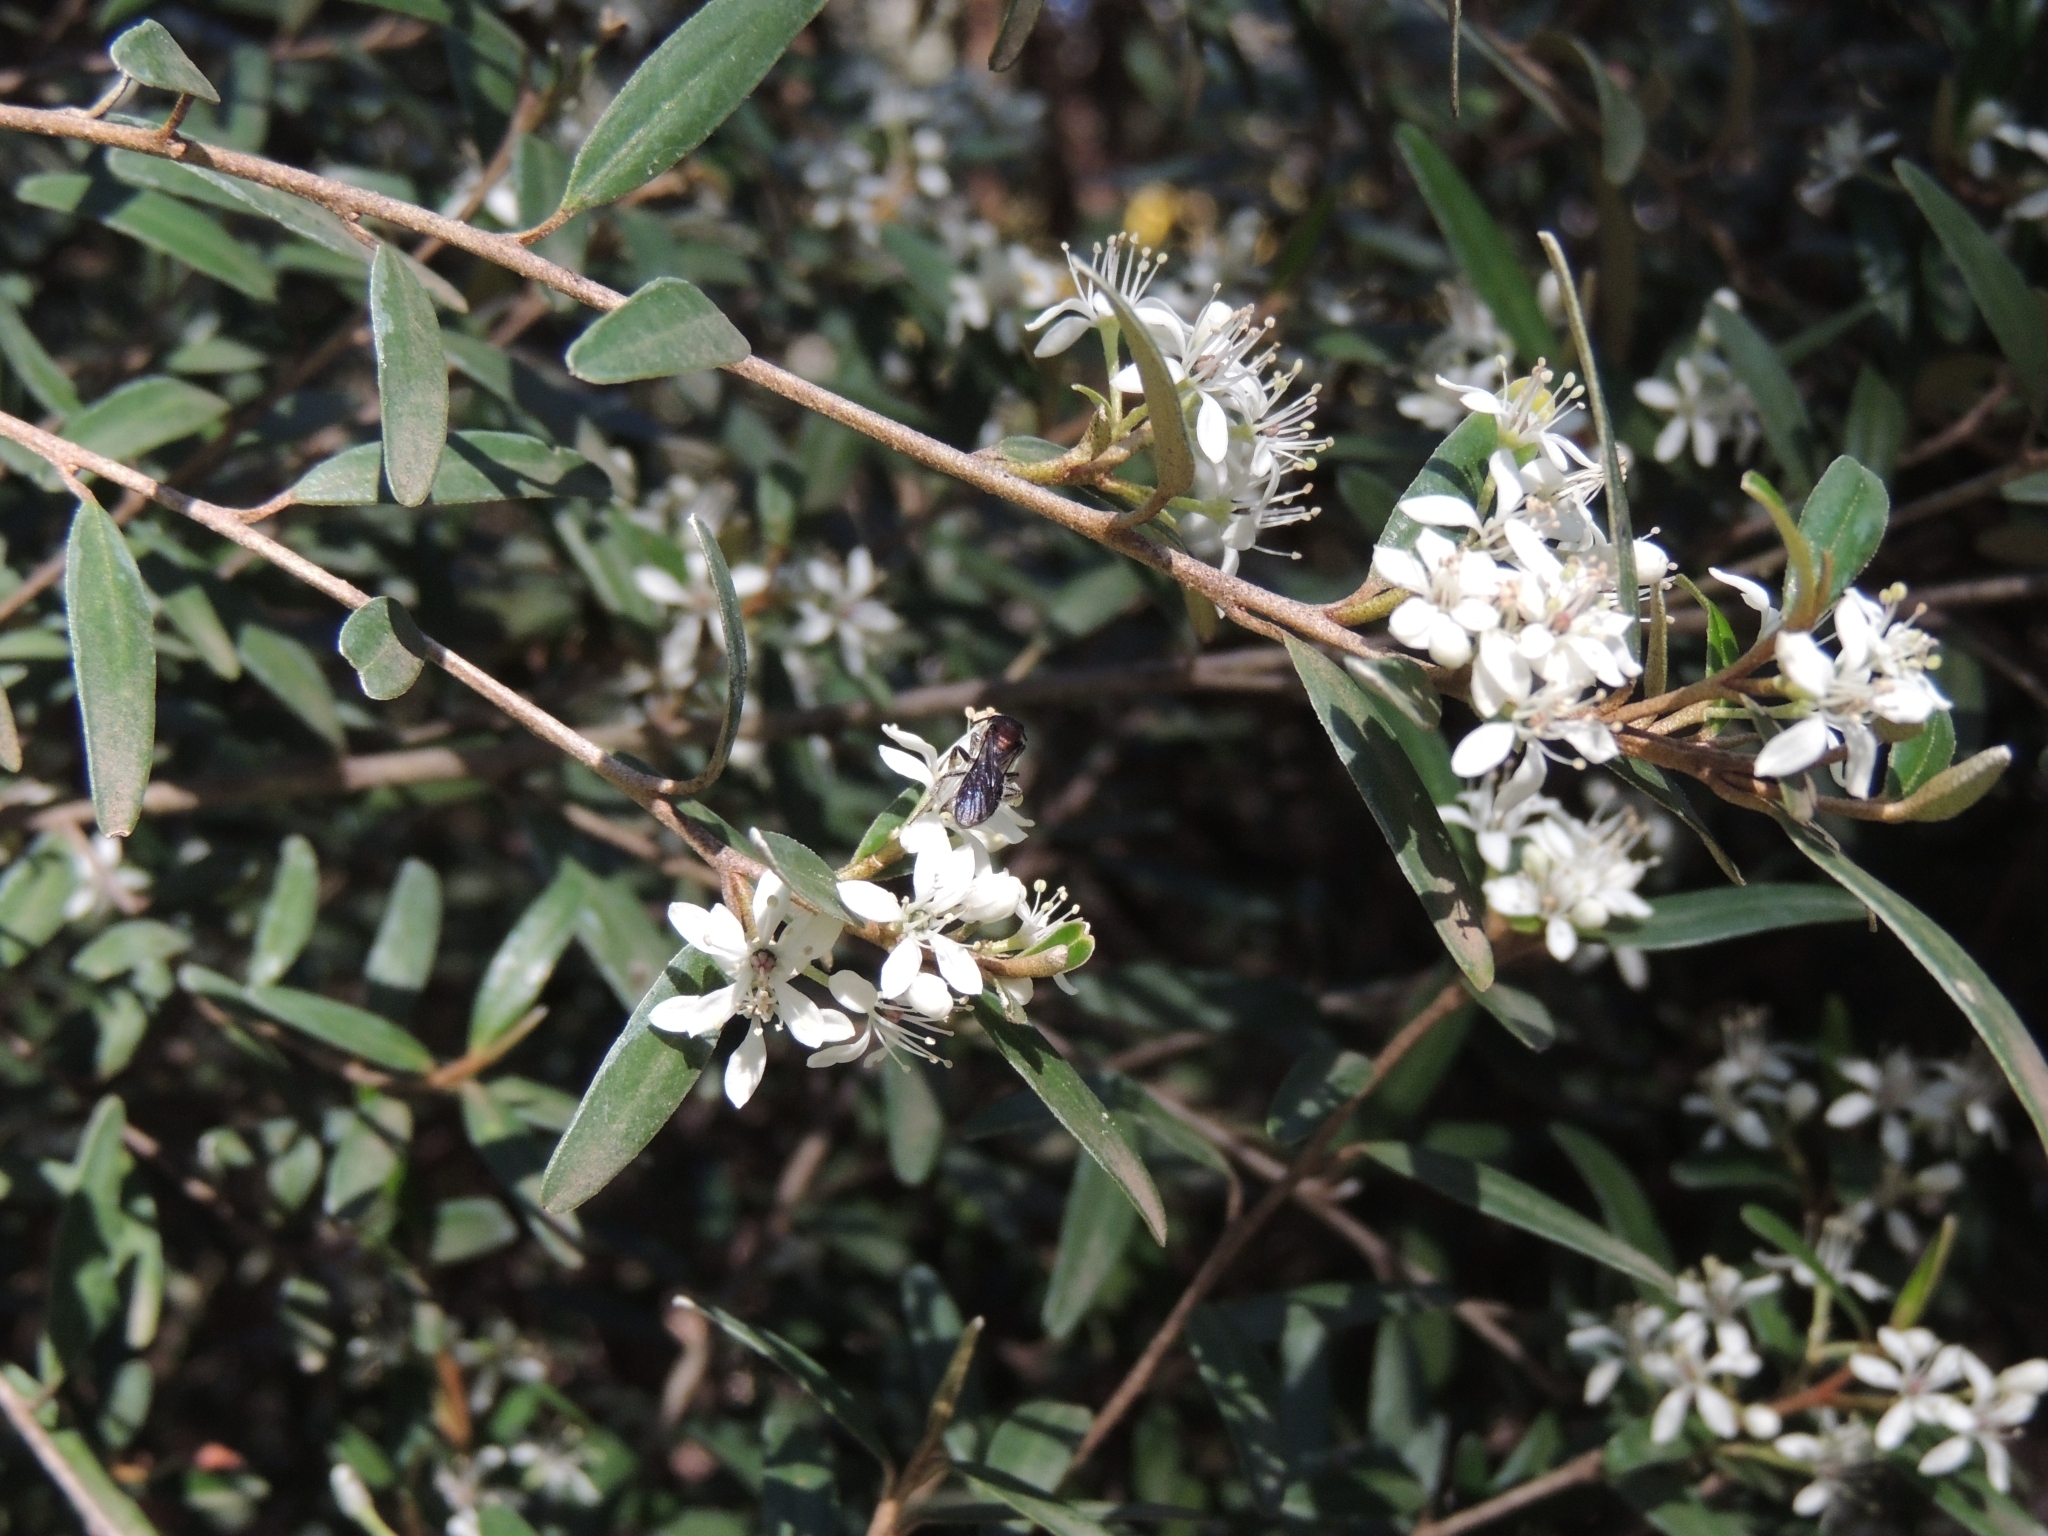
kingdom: Animalia
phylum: Arthropoda
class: Insecta
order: Hymenoptera
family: Halictidae
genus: Lasioglossum
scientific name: Lasioglossum callomelittinum
